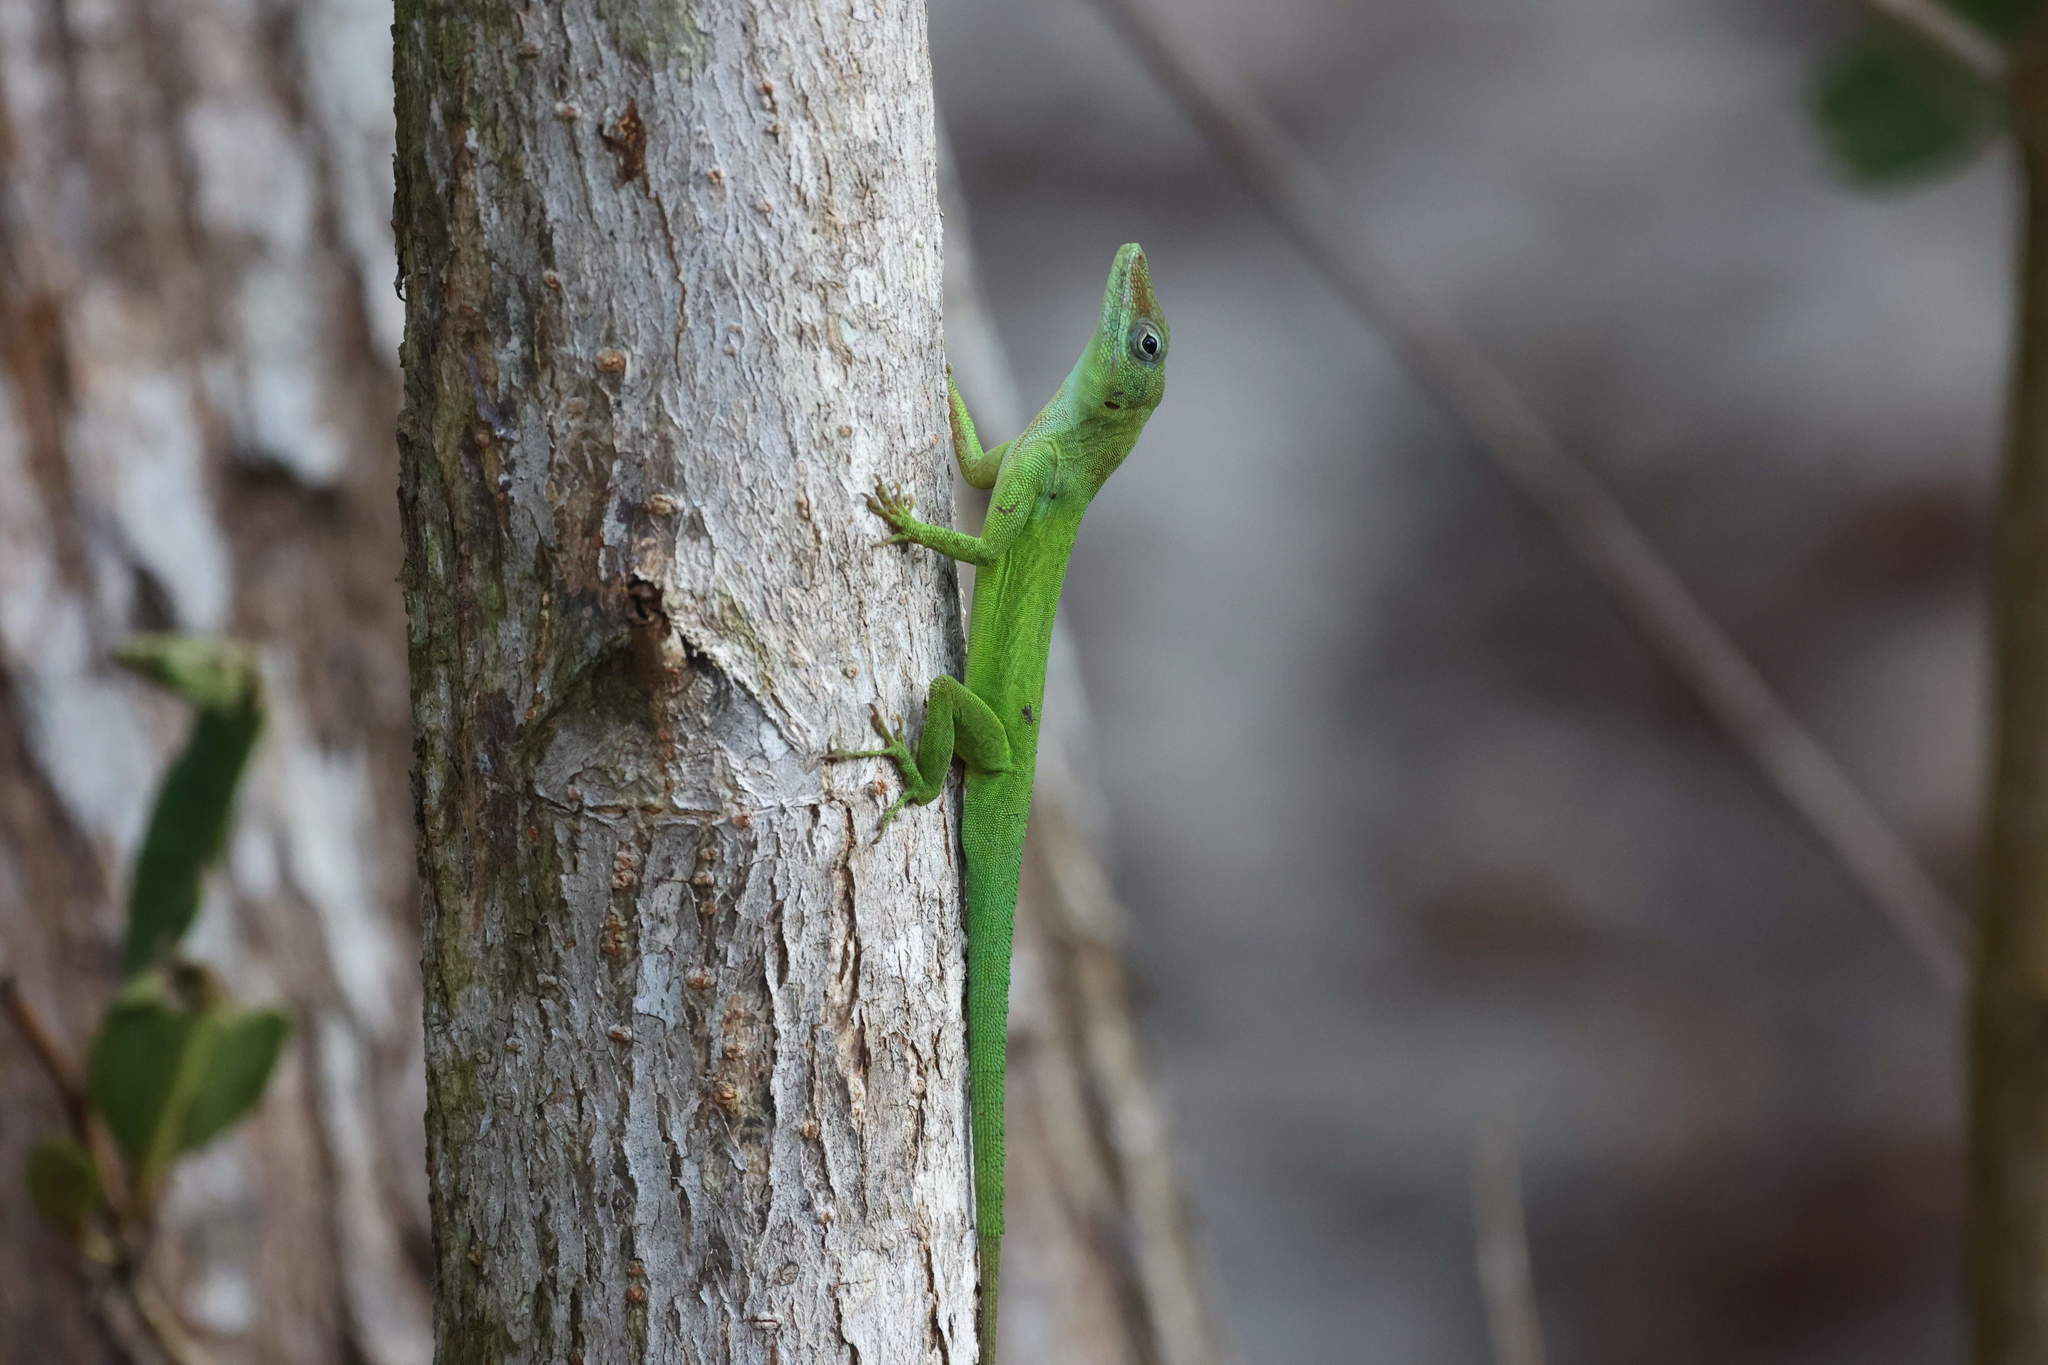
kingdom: Animalia
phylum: Chordata
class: Squamata
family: Dactyloidae
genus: Anolis
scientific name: Anolis marmoratus
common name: Guadeloupe anole
